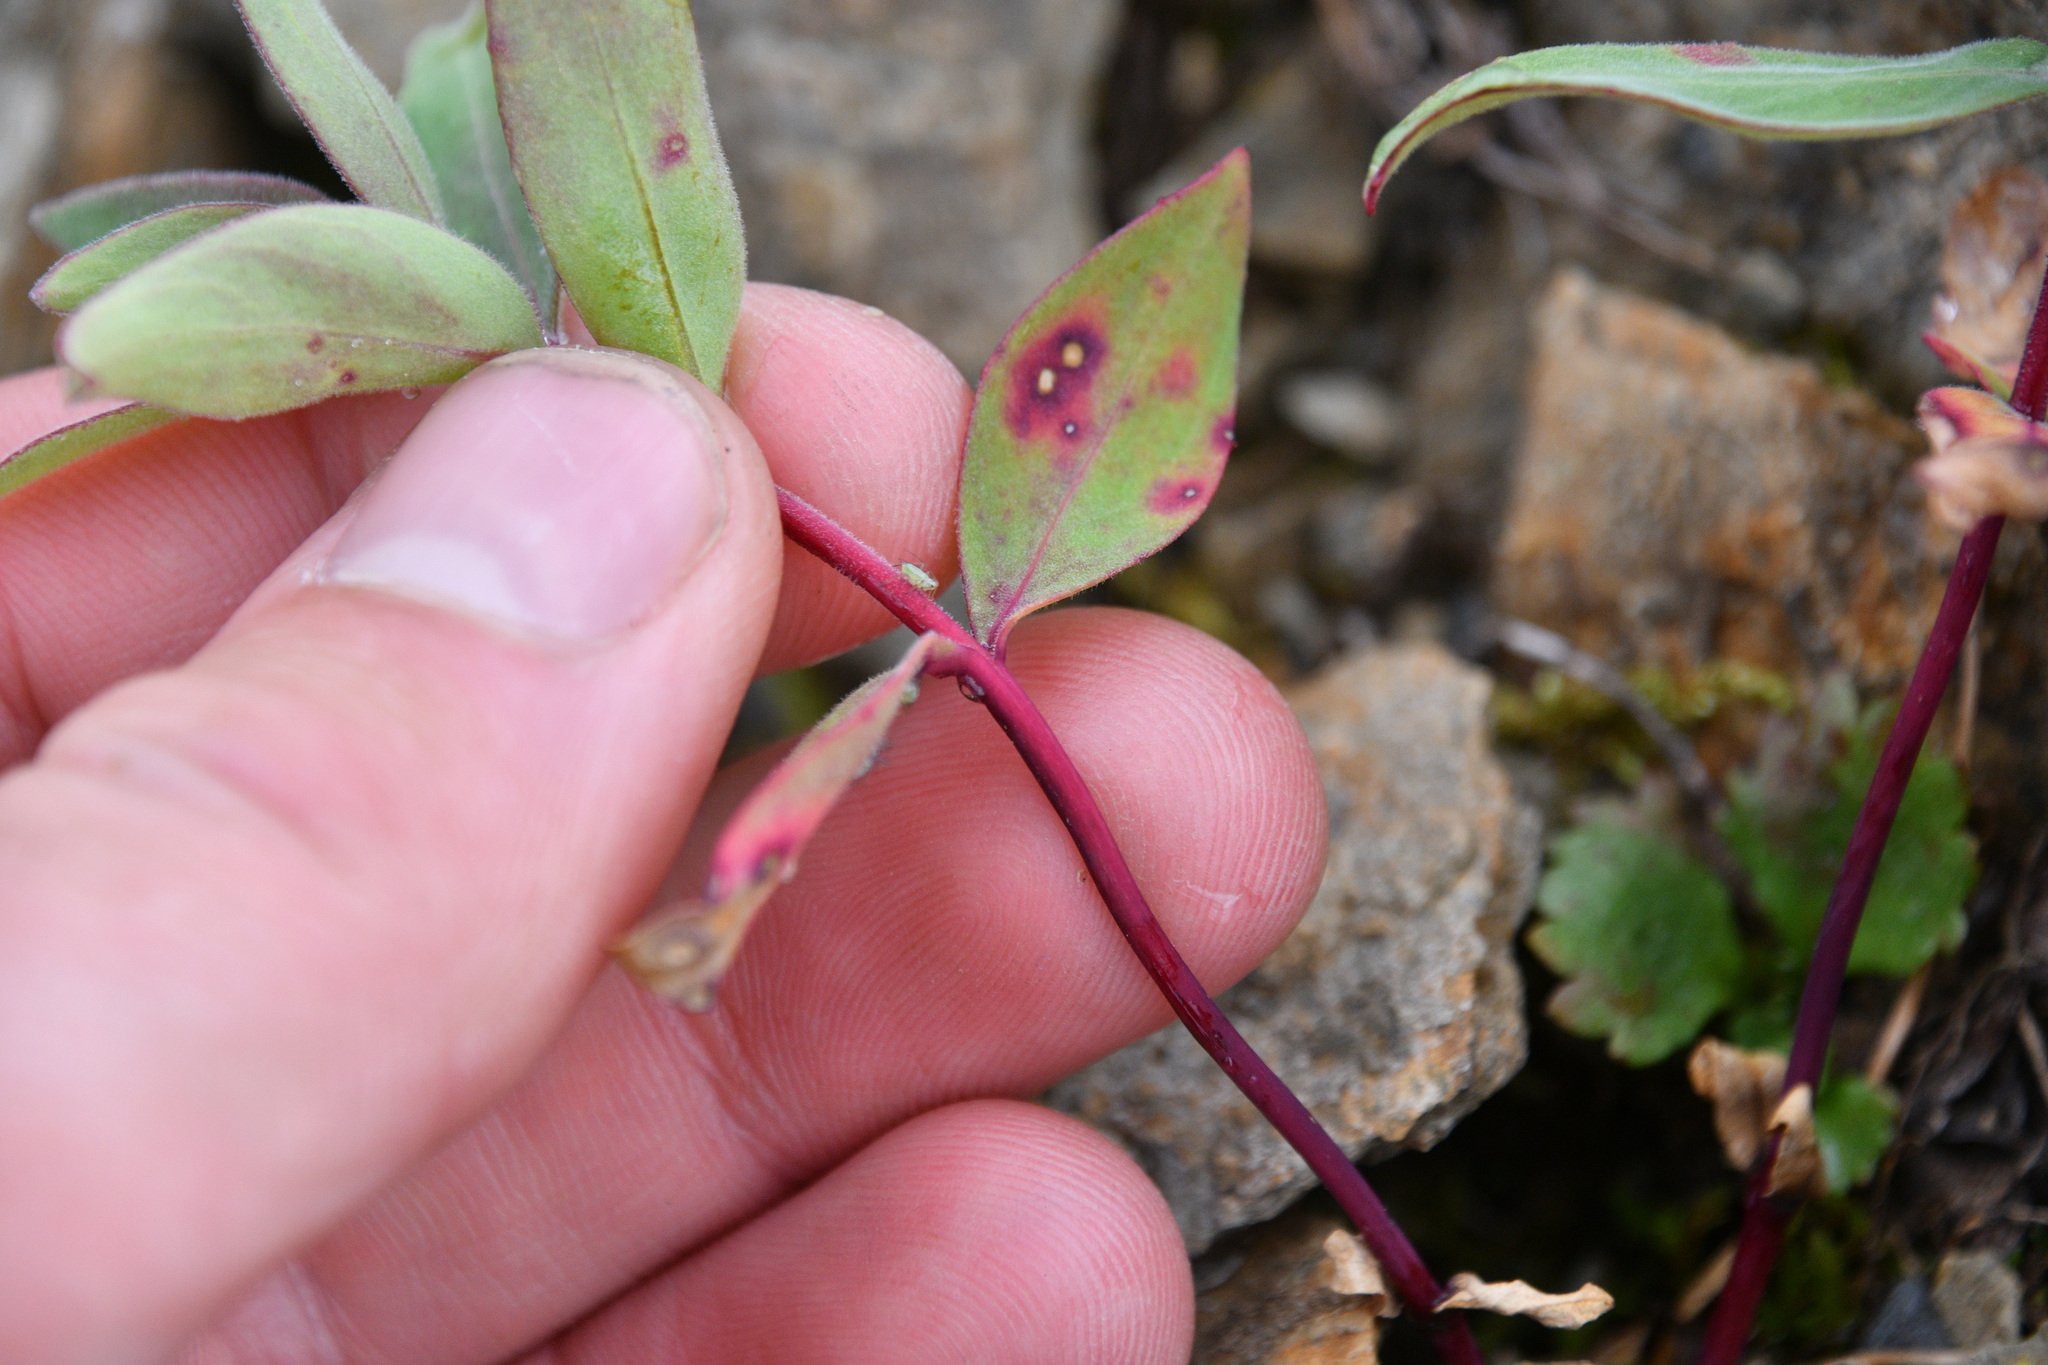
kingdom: Plantae
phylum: Tracheophyta
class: Magnoliopsida
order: Myrtales
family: Onagraceae
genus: Chamaenerion
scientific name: Chamaenerion latifolium
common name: Dwarf fireweed
